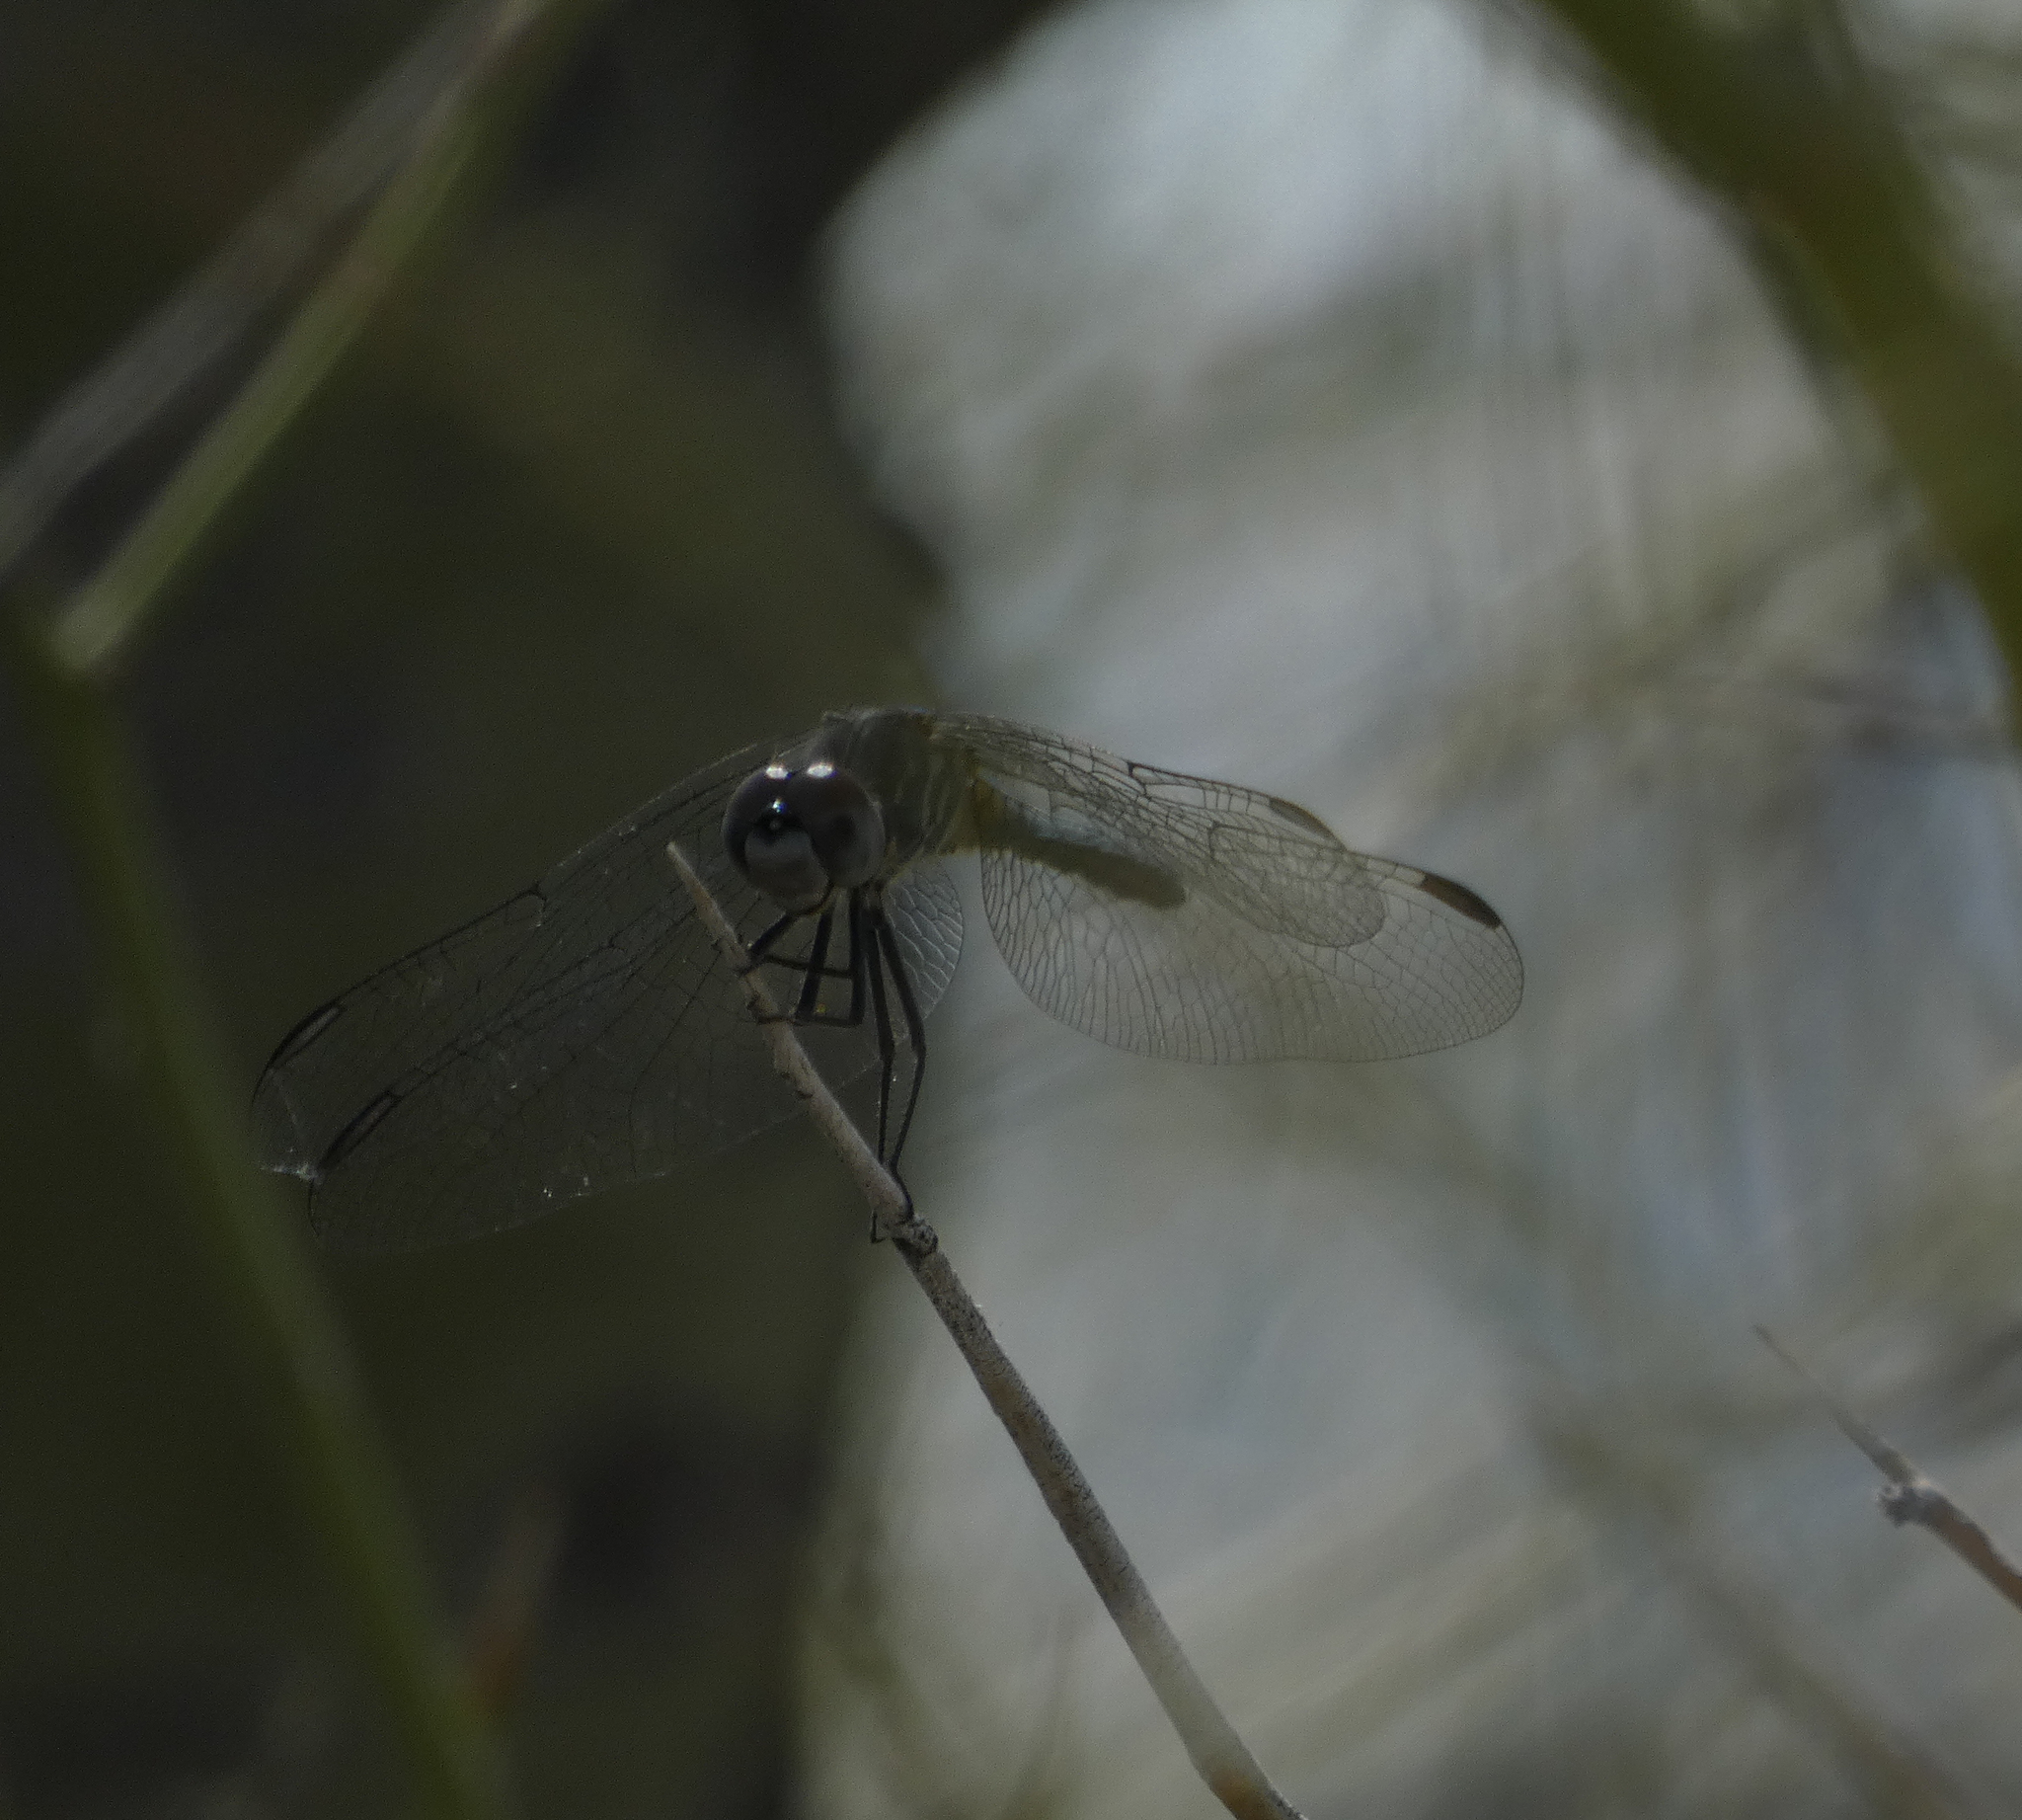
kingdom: Animalia
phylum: Arthropoda
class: Insecta
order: Odonata
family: Libellulidae
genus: Pachydiplax
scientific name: Pachydiplax longipennis
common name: Blue dasher
